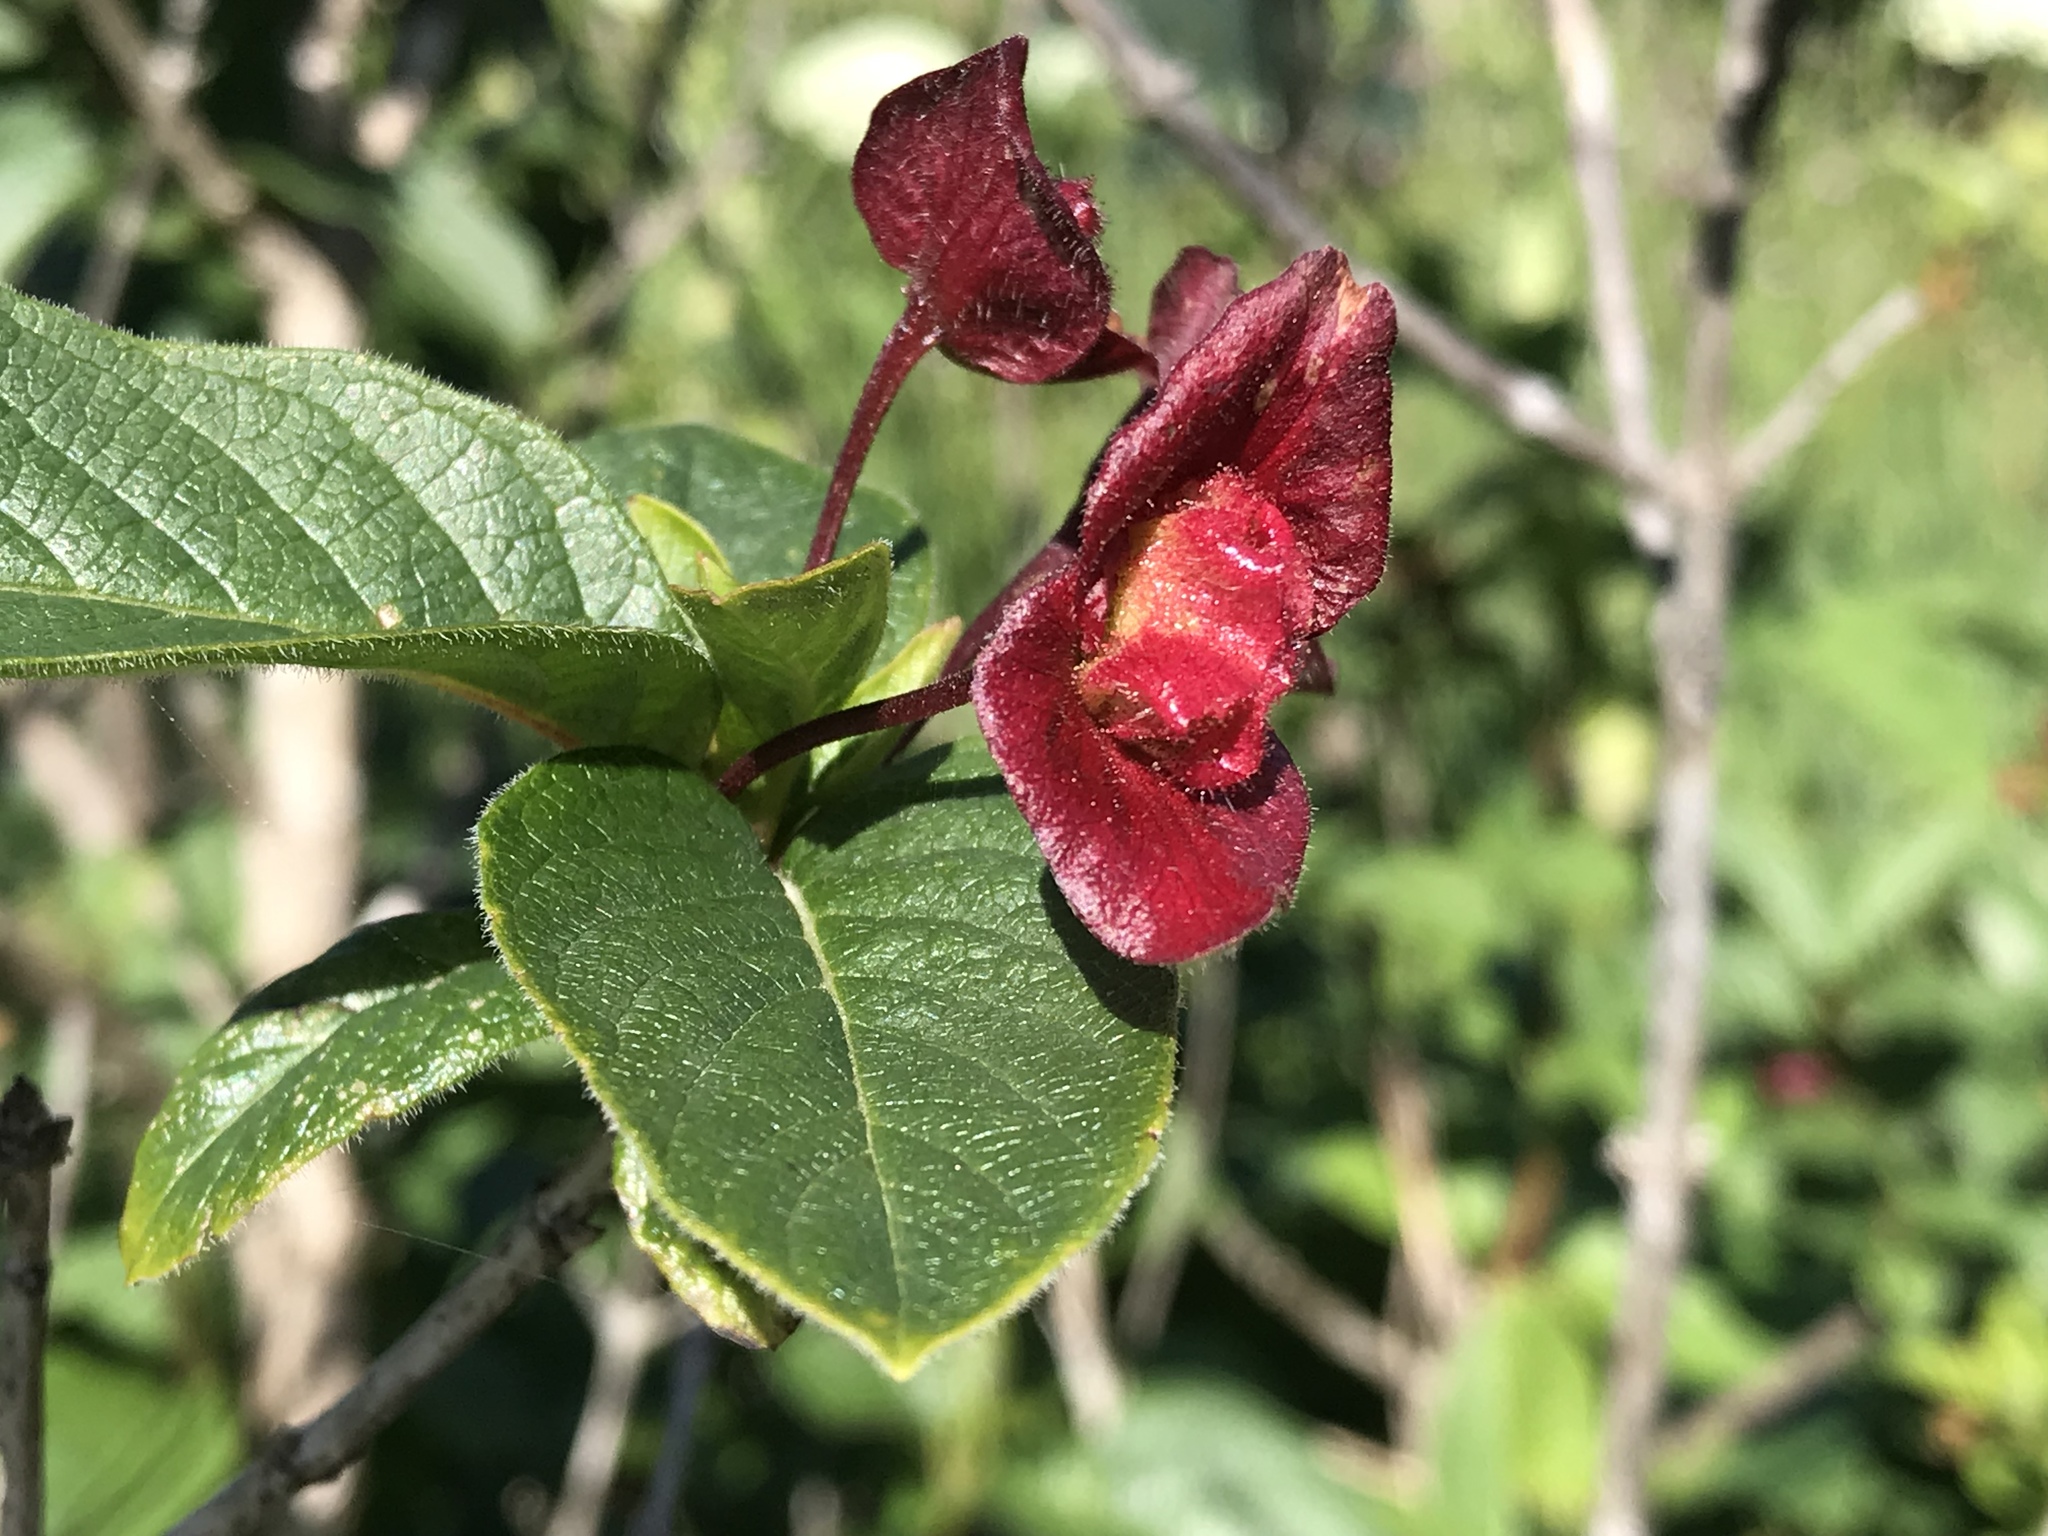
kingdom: Plantae
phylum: Tracheophyta
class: Magnoliopsida
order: Dipsacales
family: Caprifoliaceae
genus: Lonicera
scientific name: Lonicera involucrata
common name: Californian honeysuckle
